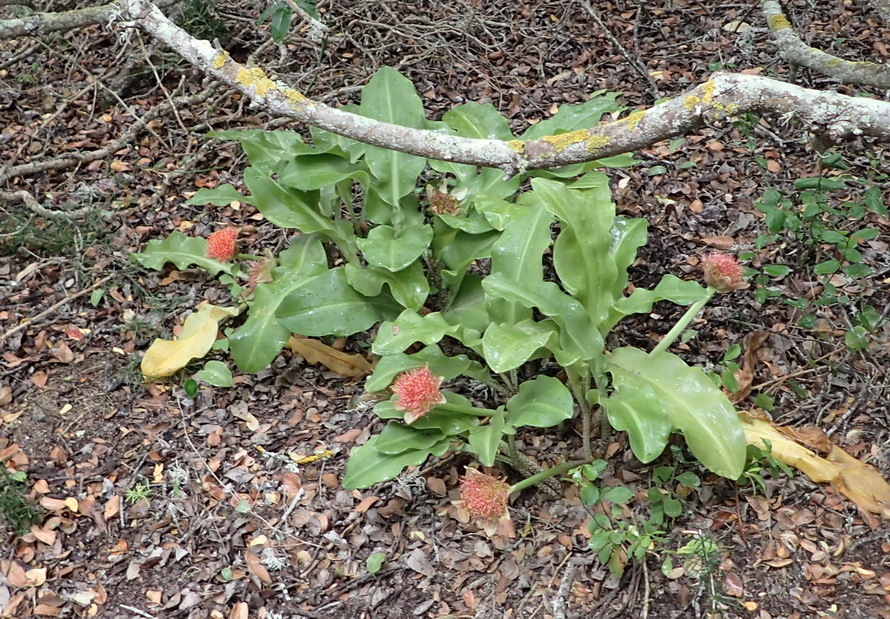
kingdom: Plantae
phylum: Tracheophyta
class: Liliopsida
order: Asparagales
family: Amaryllidaceae
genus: Scadoxus
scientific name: Scadoxus puniceus
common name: Royal-paintbrush
